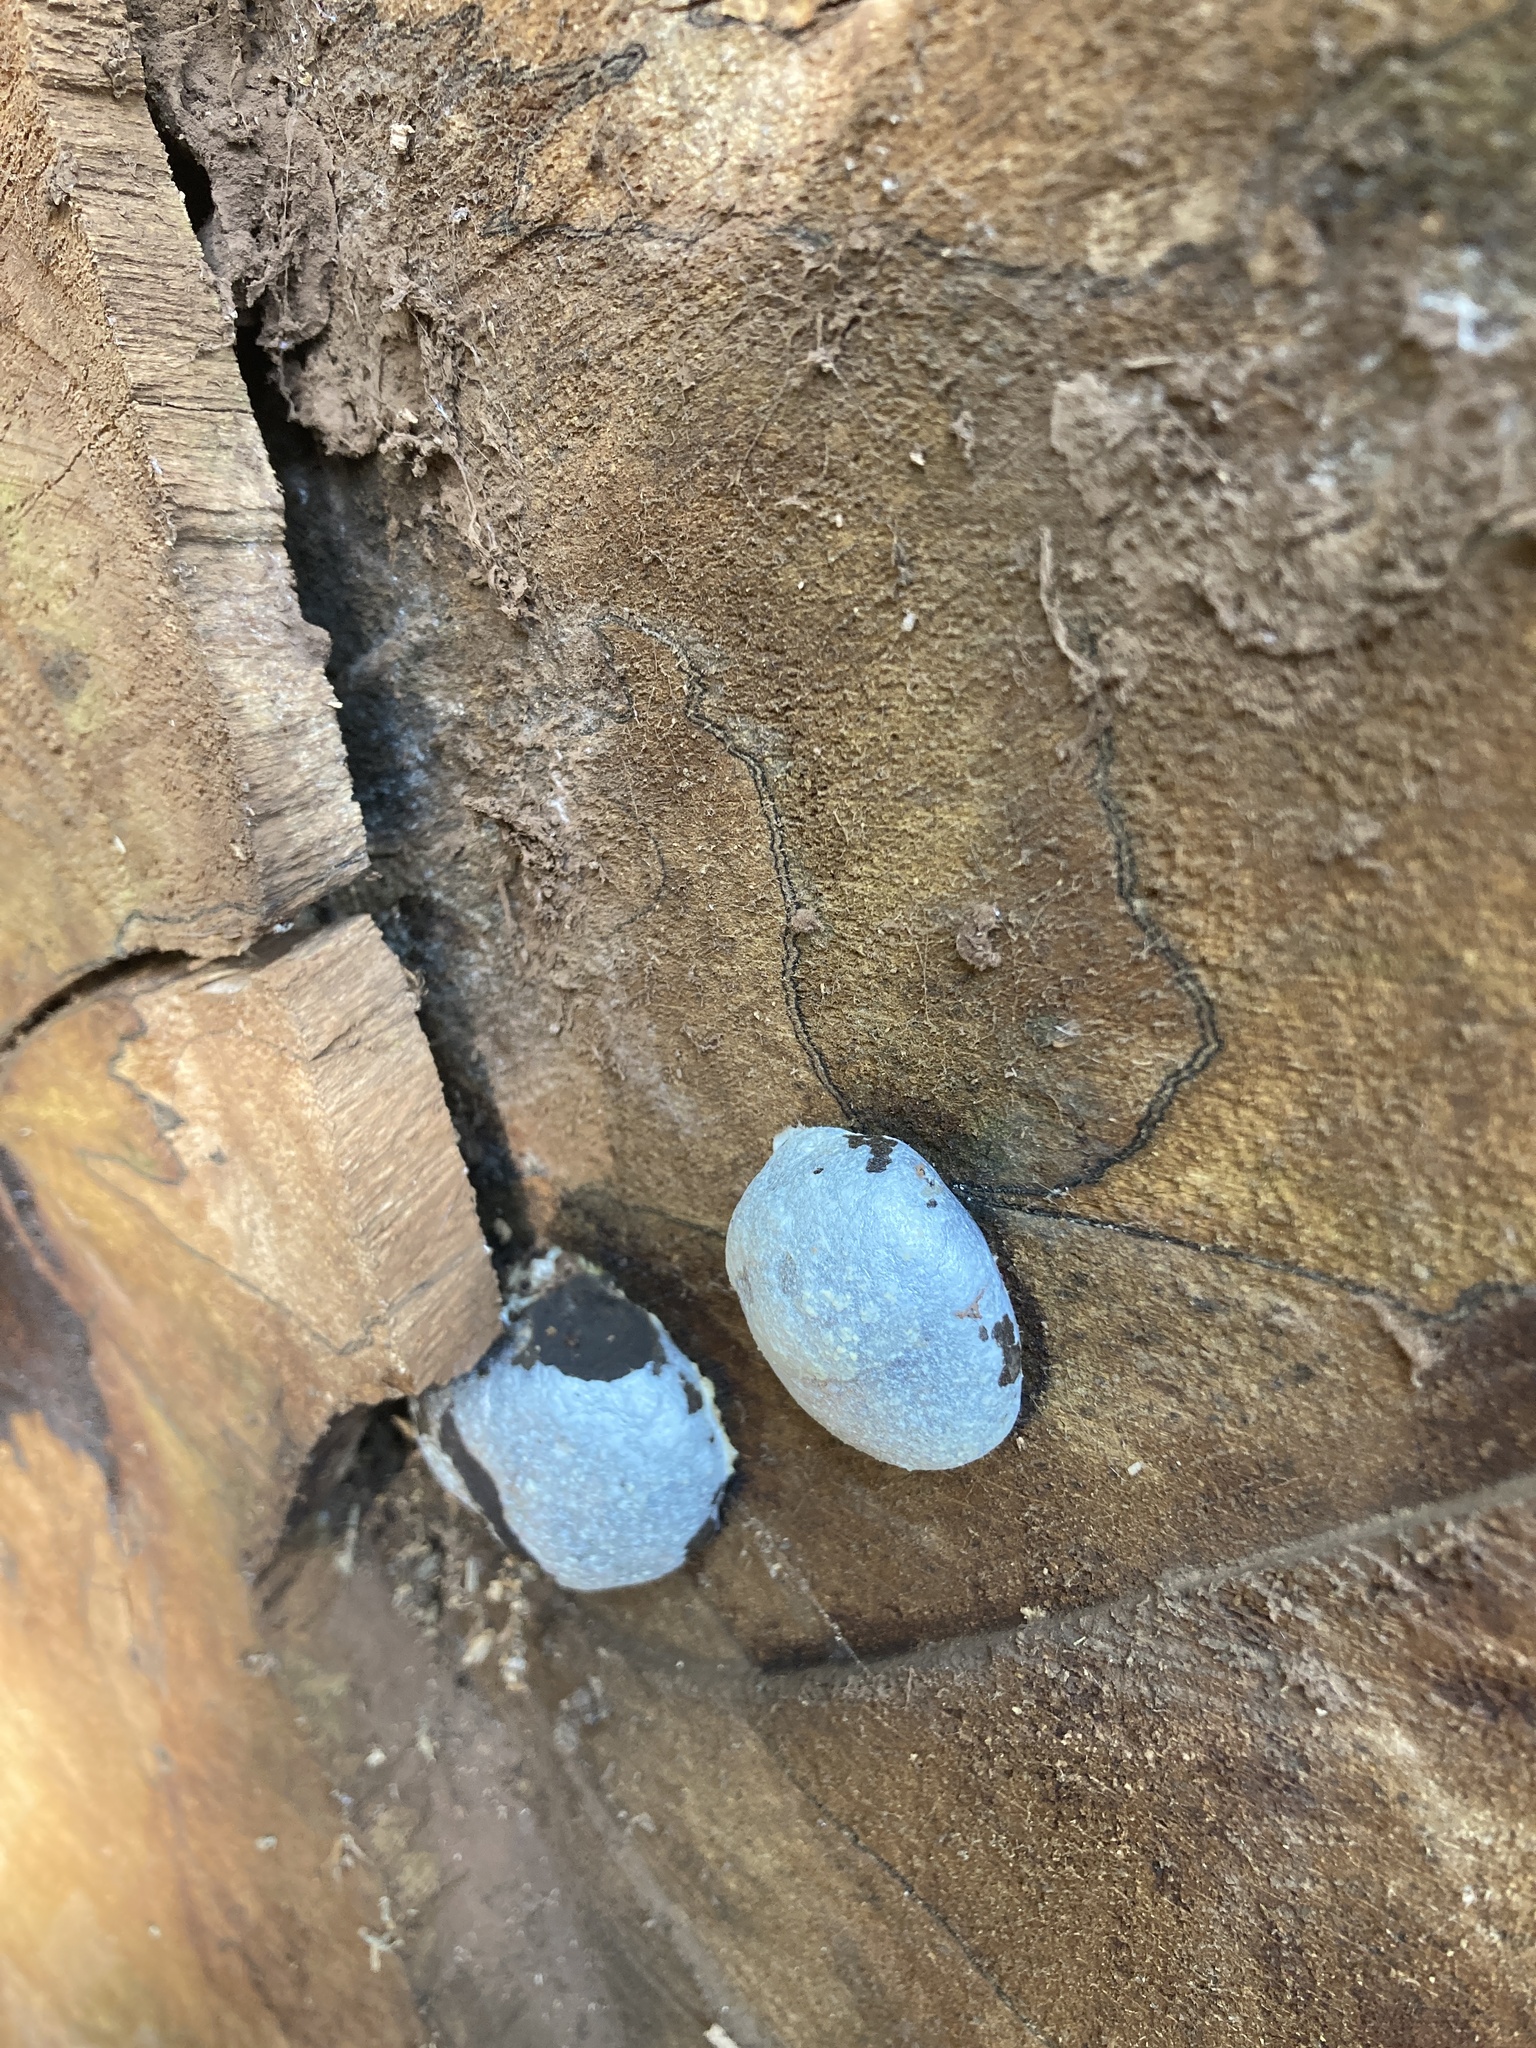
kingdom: Protozoa
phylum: Mycetozoa
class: Myxomycetes
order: Cribrariales
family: Tubiferaceae
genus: Reticularia
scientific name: Reticularia lycoperdon
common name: False puffball
